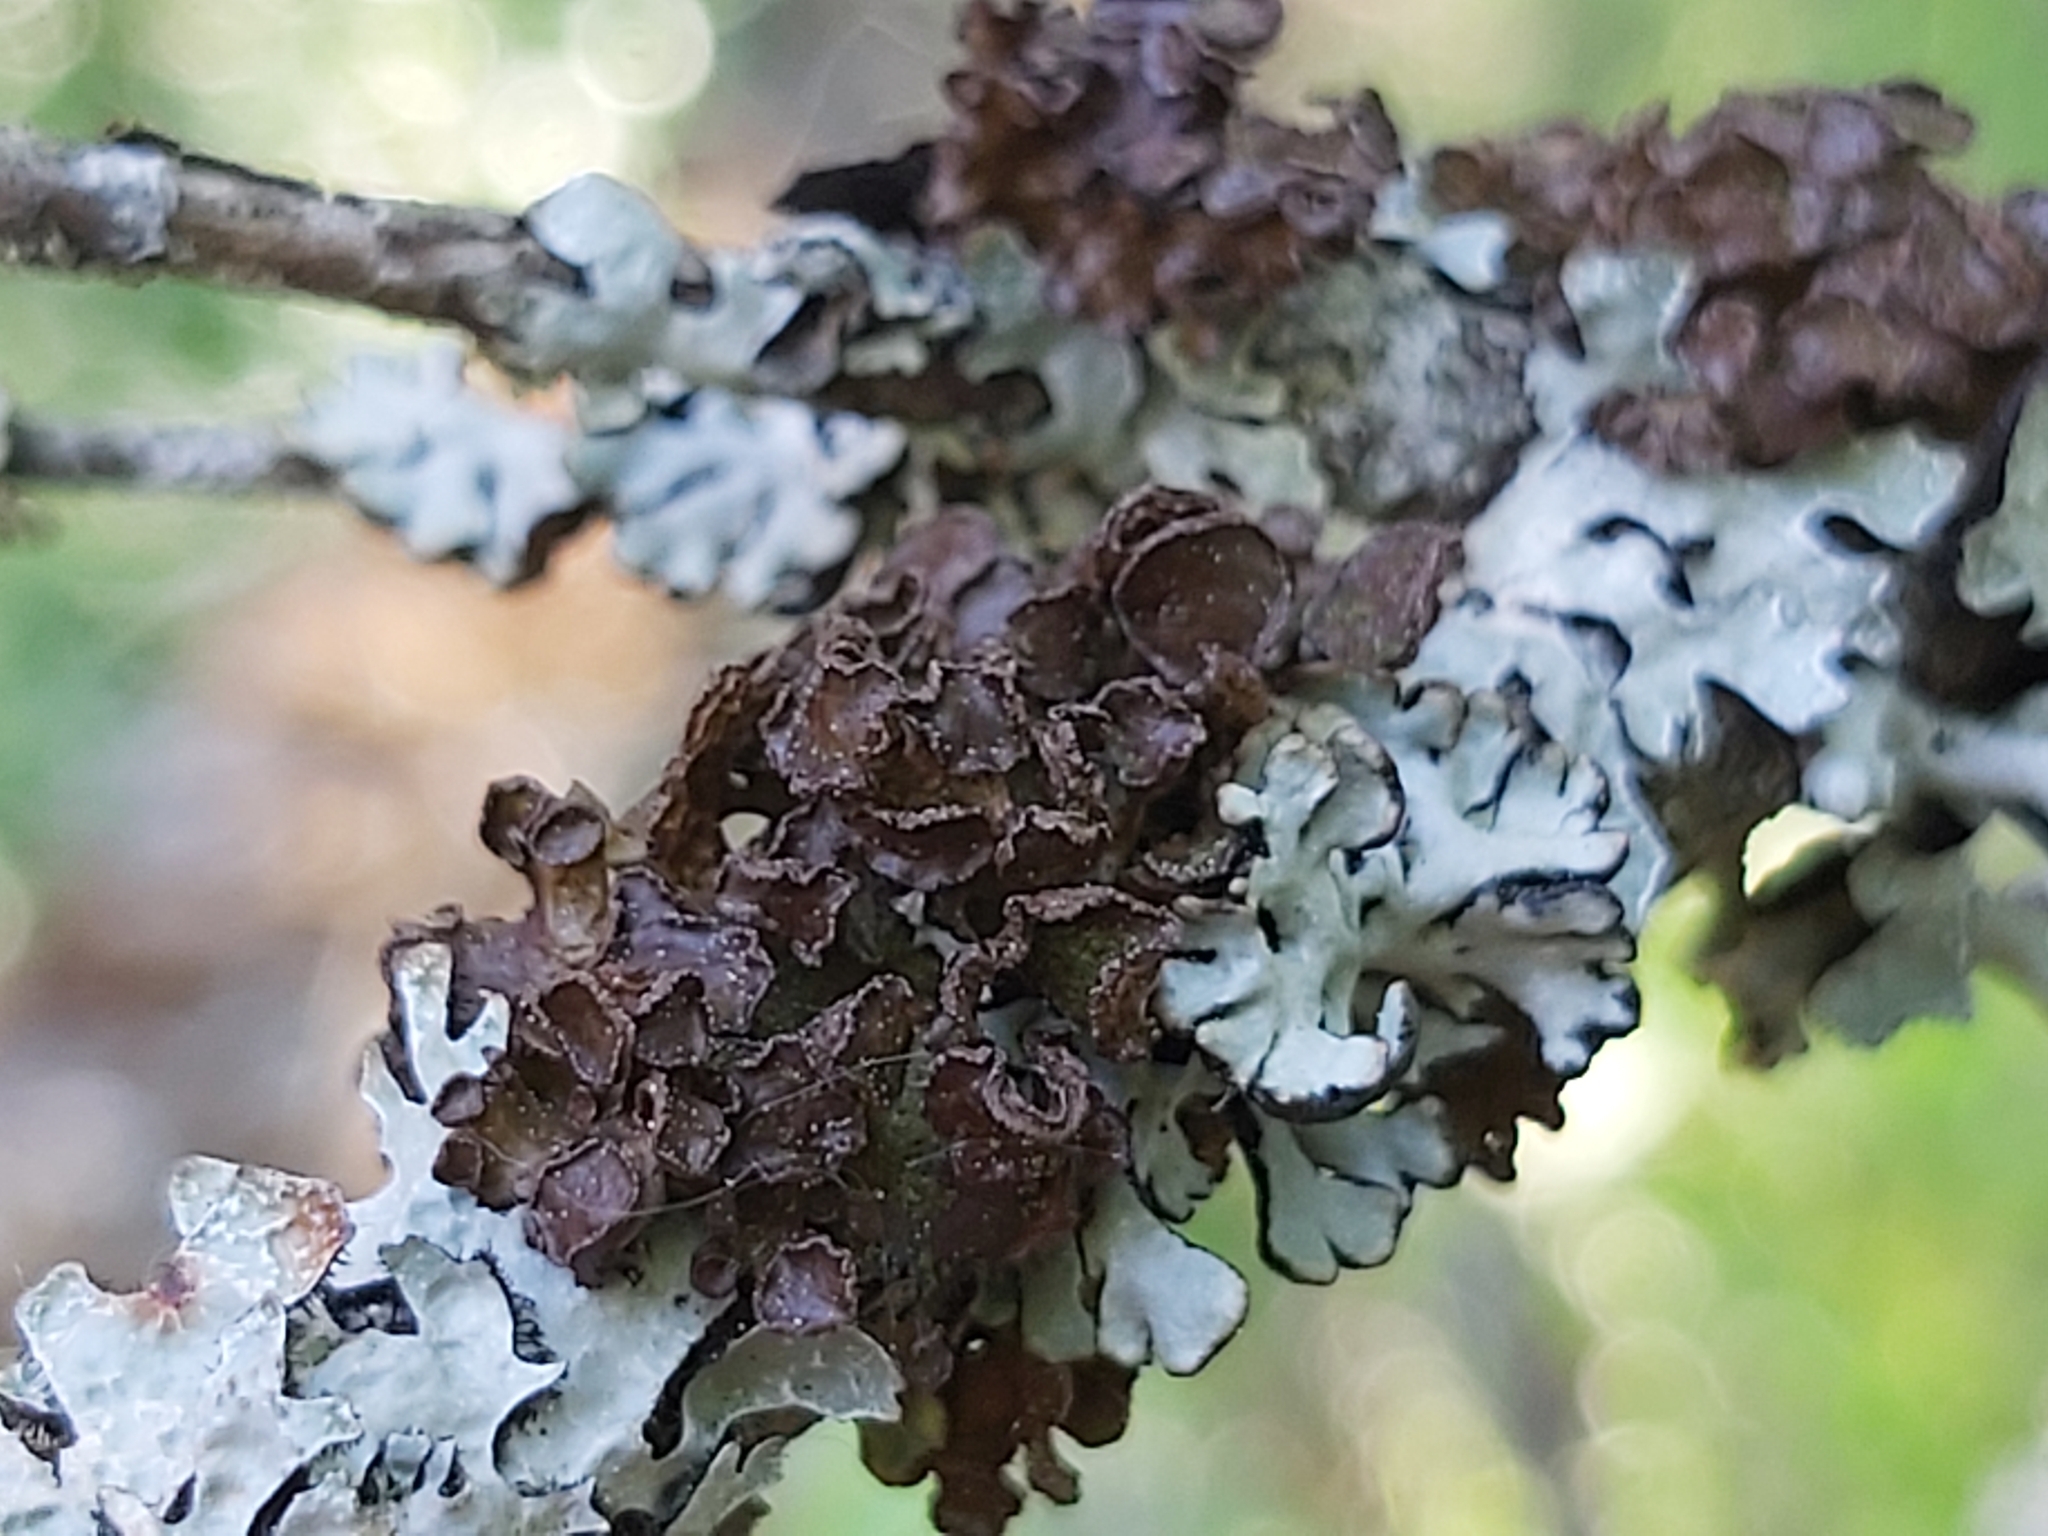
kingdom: Fungi
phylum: Ascomycota
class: Lecanoromycetes
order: Lecanorales
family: Parmeliaceae
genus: Cetraria
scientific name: Cetraria sepincola
